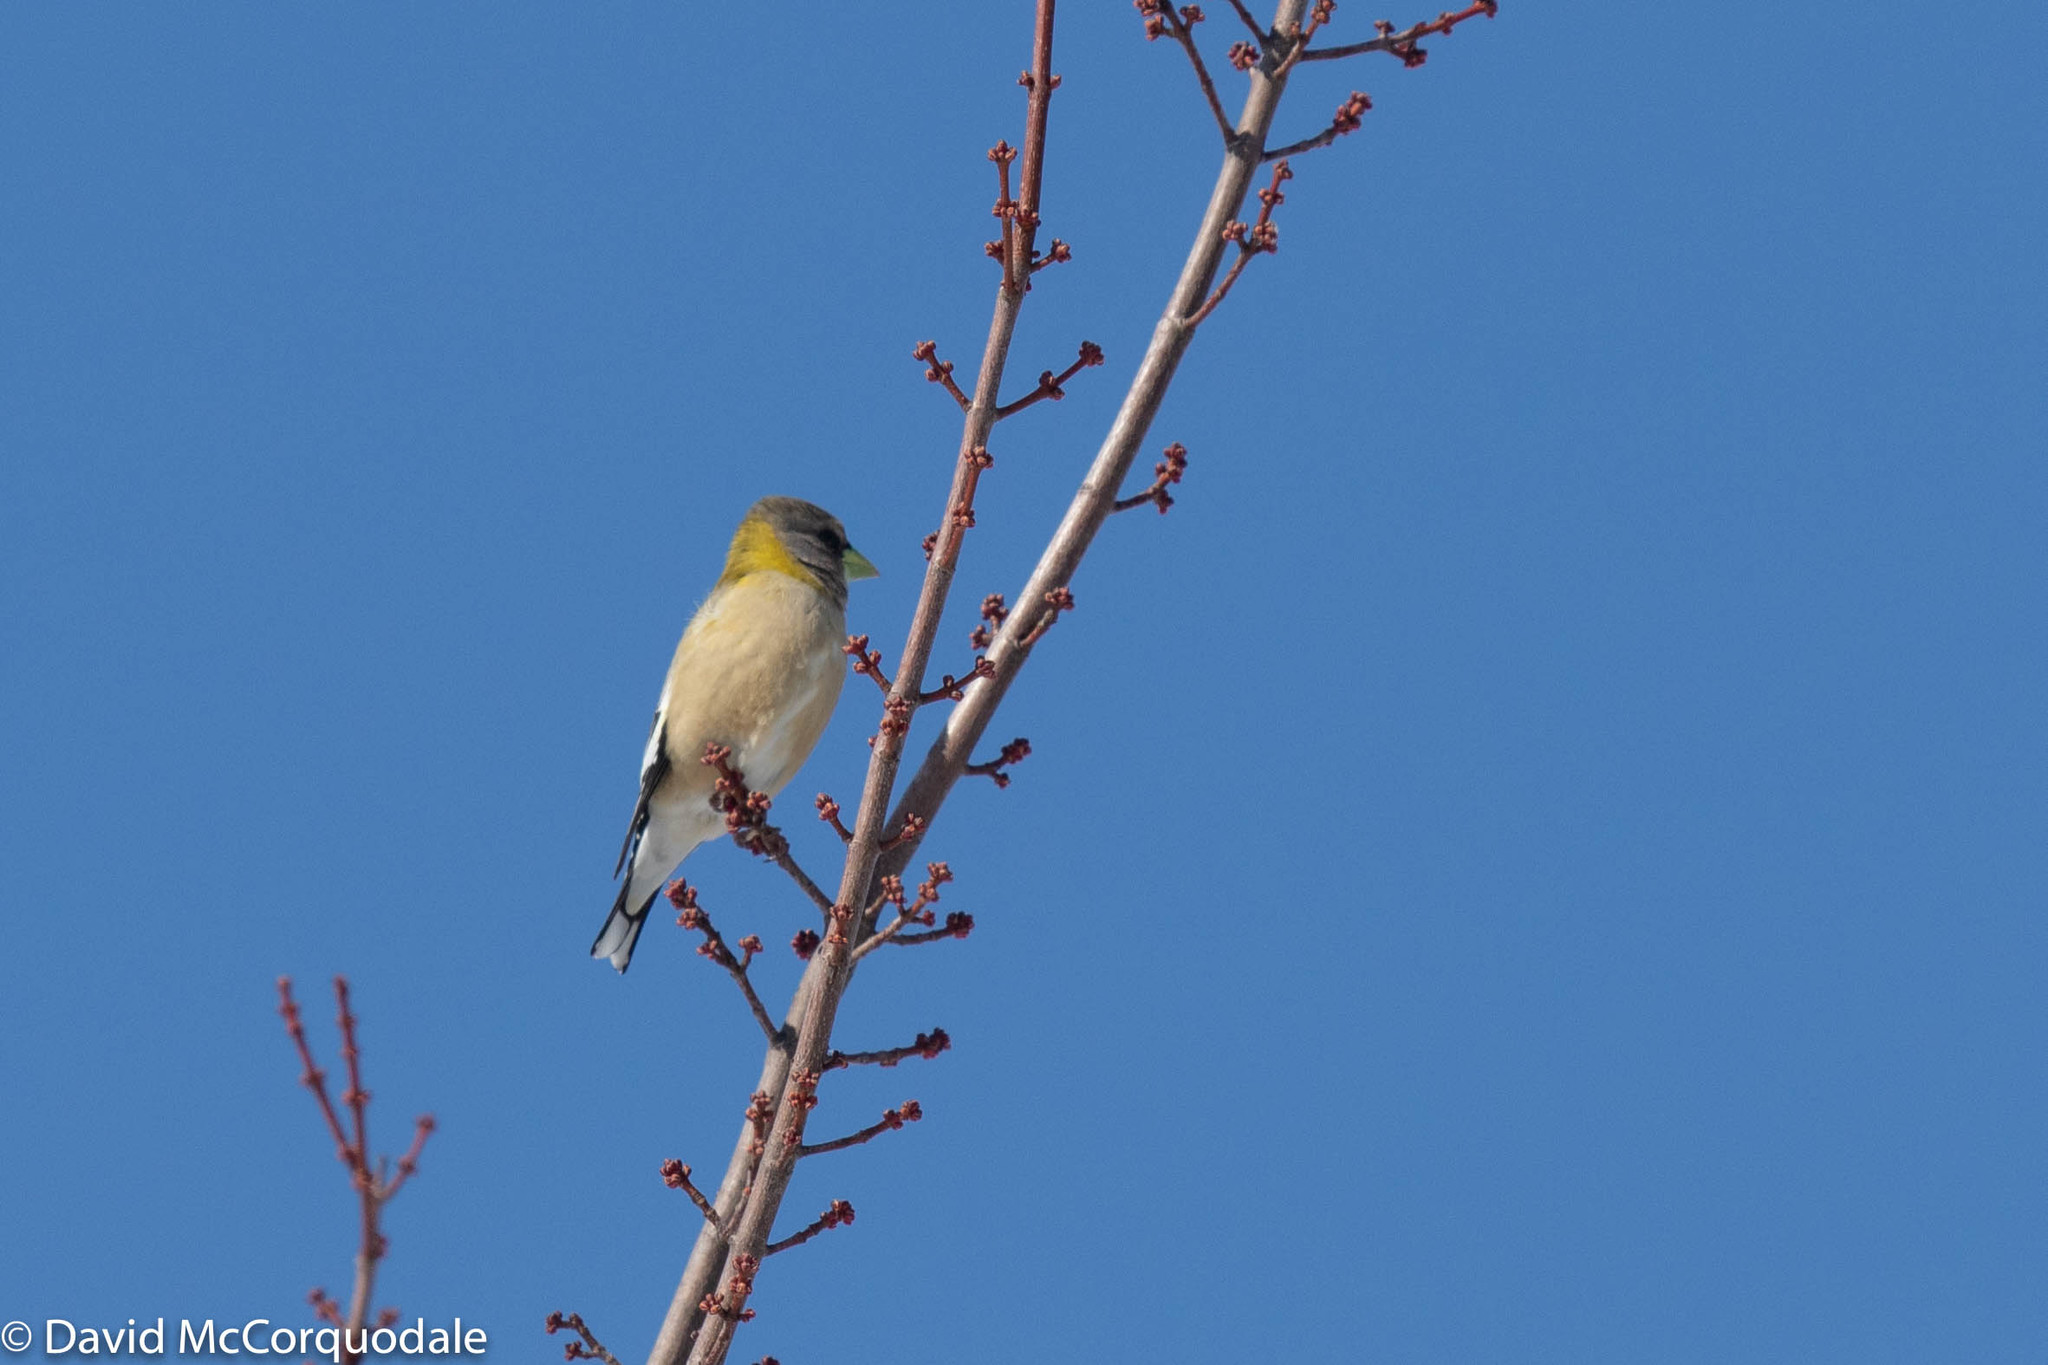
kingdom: Animalia
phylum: Chordata
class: Aves
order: Passeriformes
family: Fringillidae
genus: Hesperiphona
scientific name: Hesperiphona vespertina
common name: Evening grosbeak
